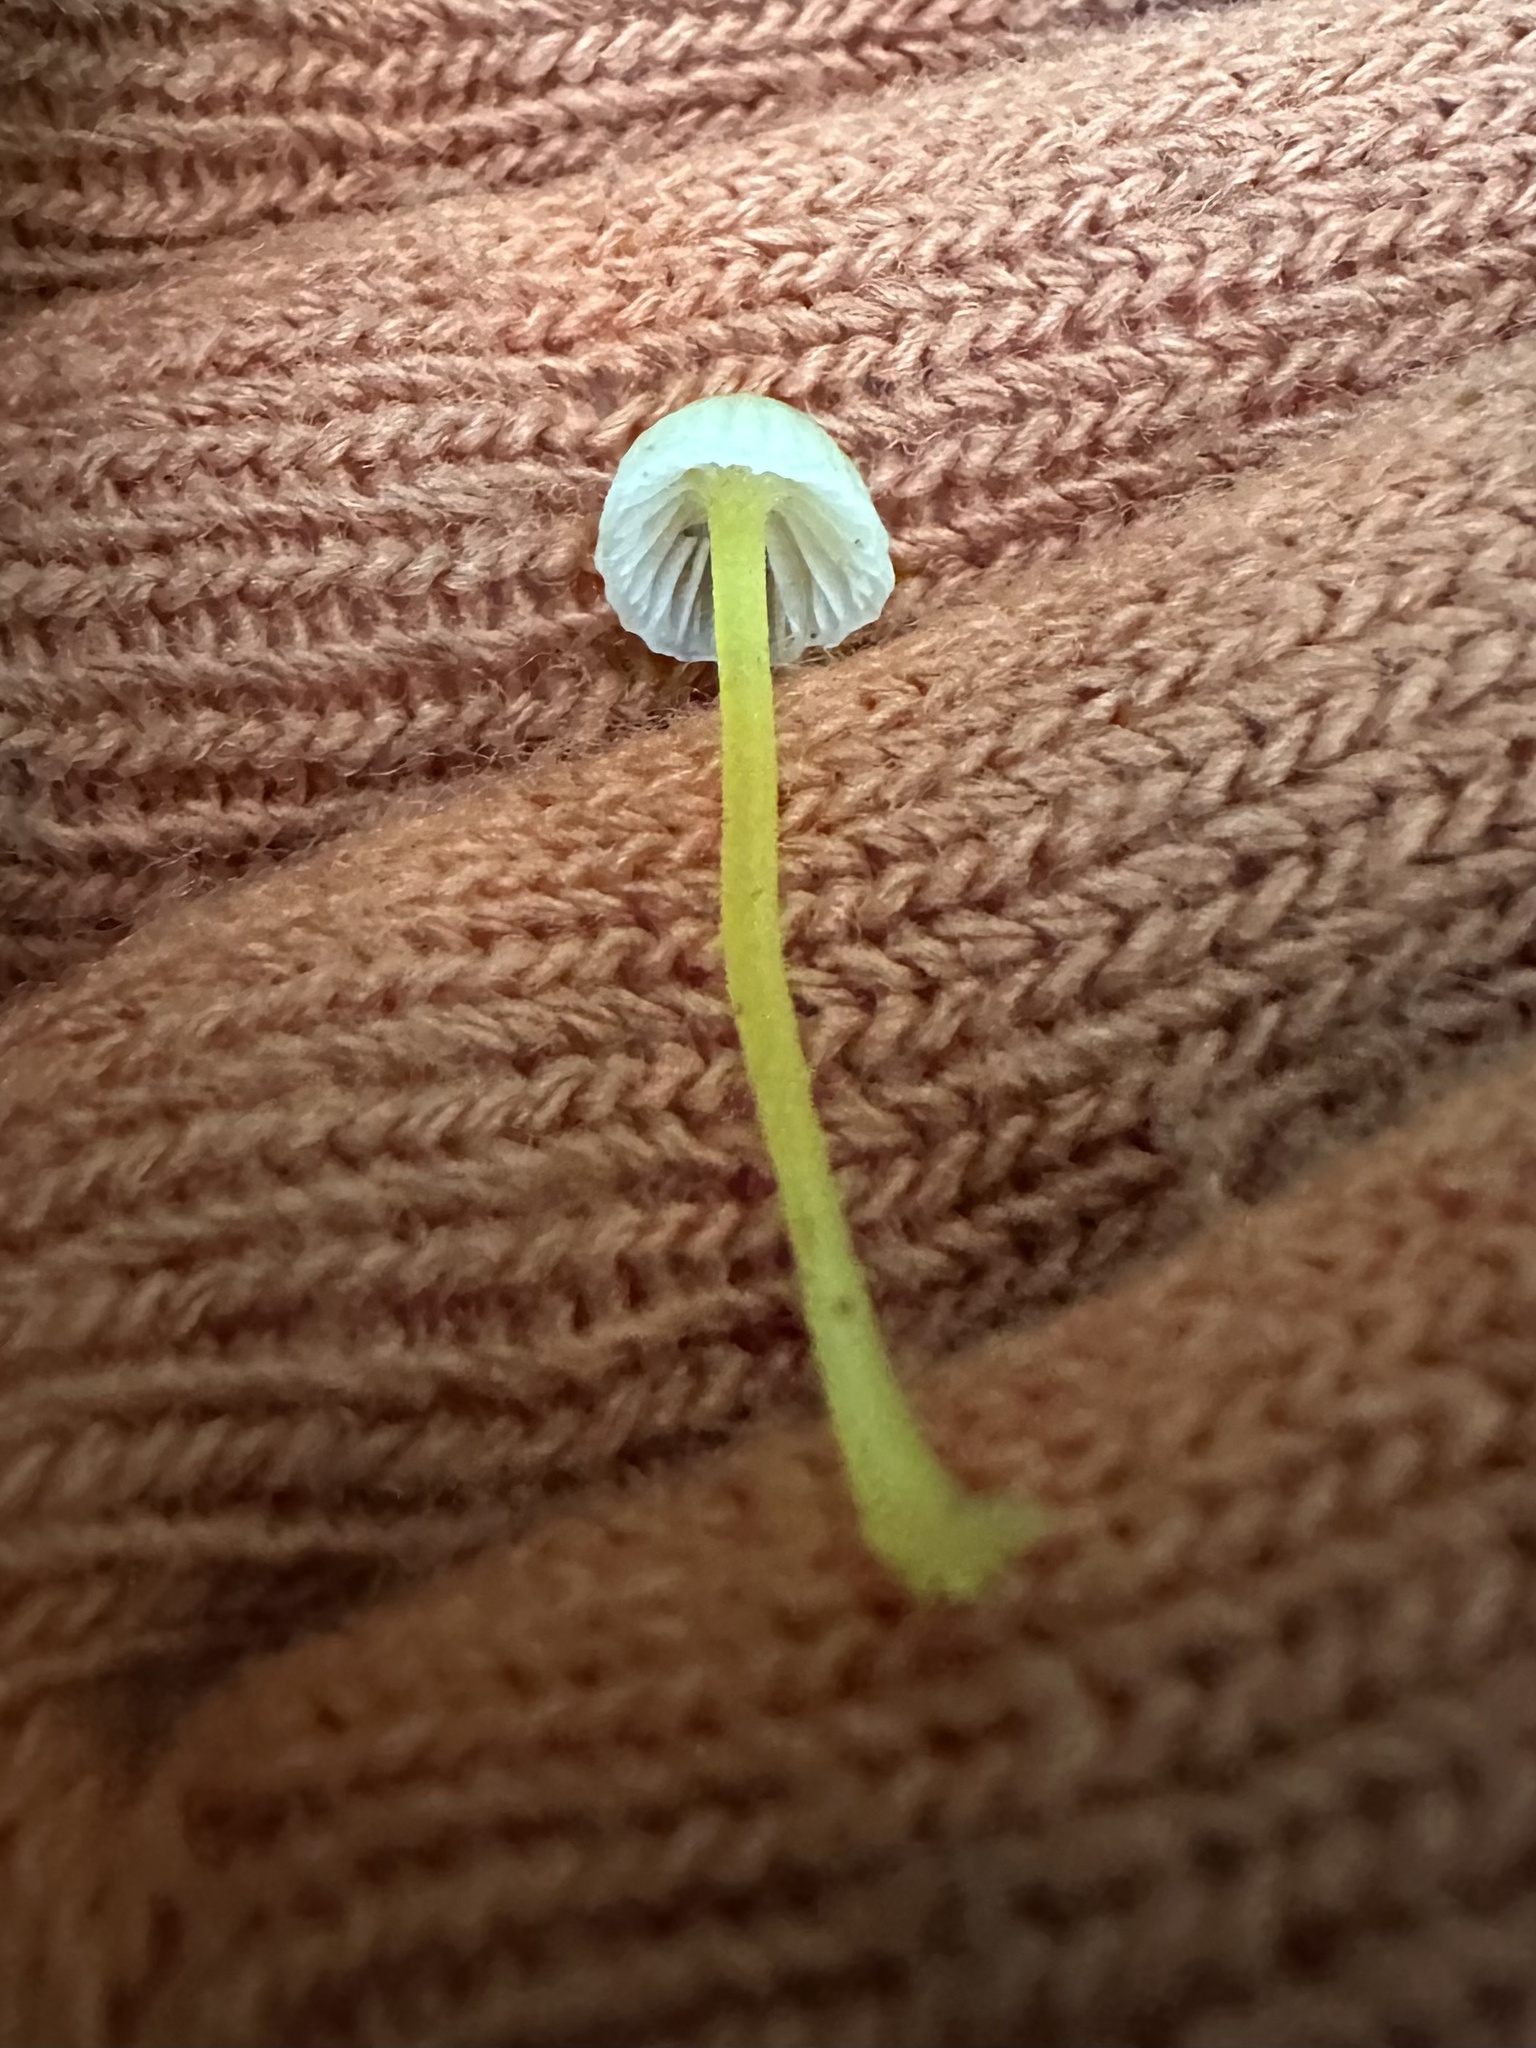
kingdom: Fungi
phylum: Basidiomycota
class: Agaricomycetes
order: Agaricales
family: Mycenaceae
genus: Mycena
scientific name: Mycena epipterygia
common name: Yellowleg bonnet
